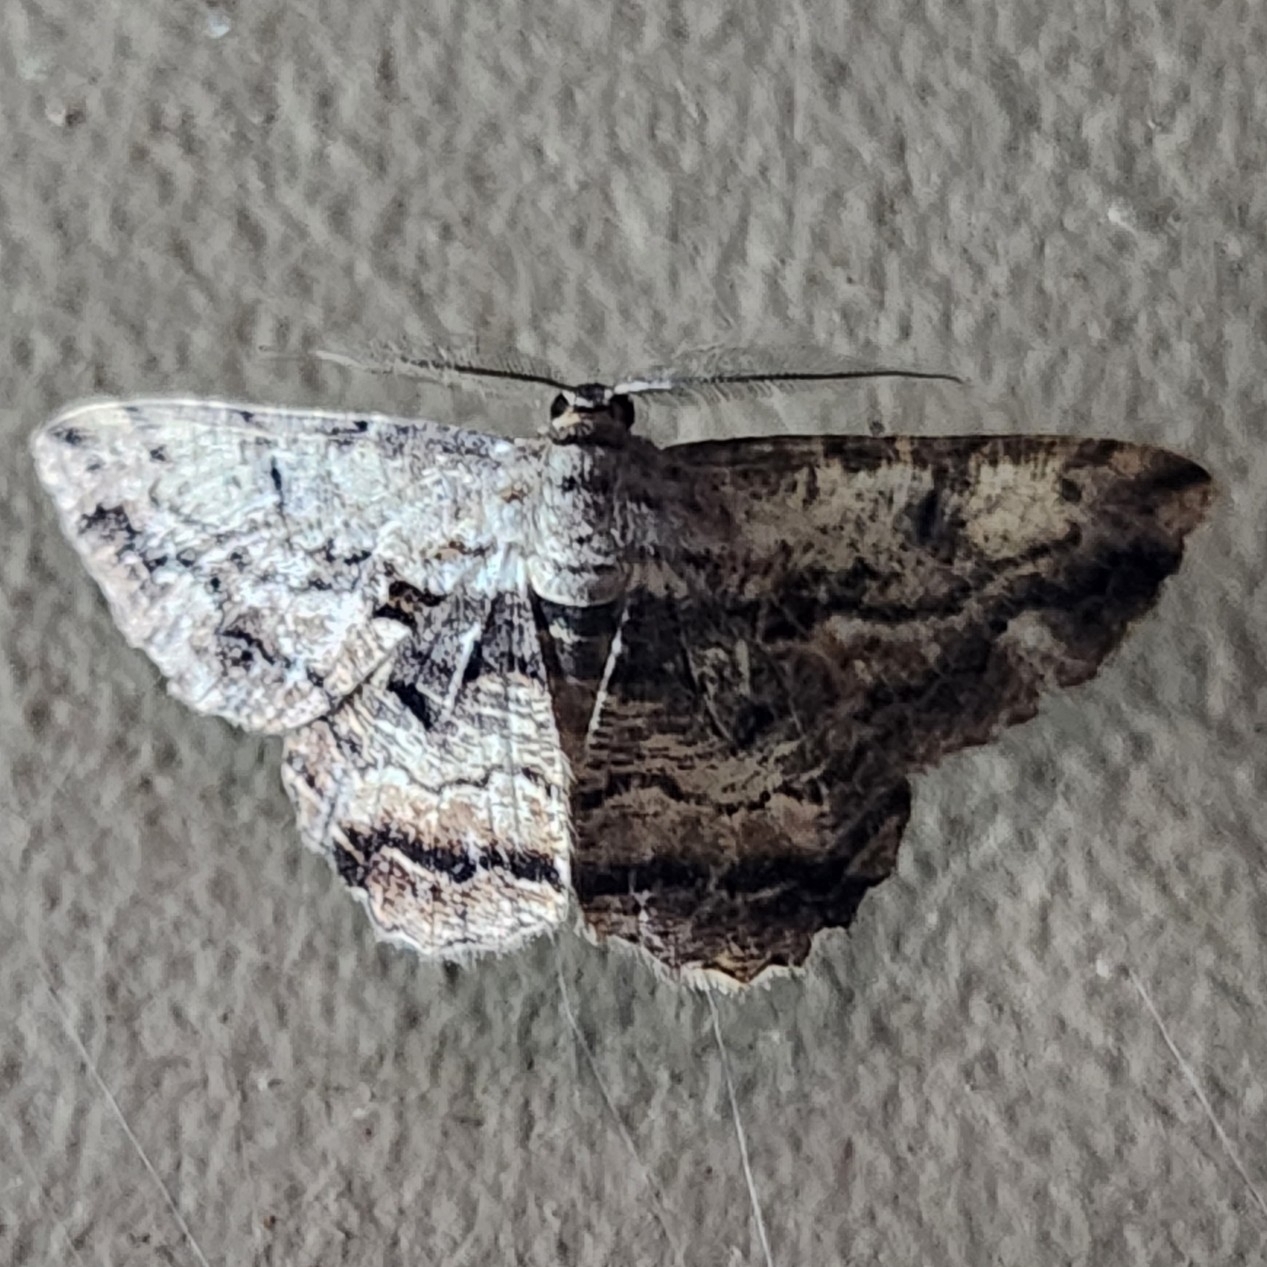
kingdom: Animalia
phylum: Arthropoda
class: Insecta
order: Lepidoptera
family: Geometridae
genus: Scioglyptis
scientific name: Scioglyptis lyciaria
